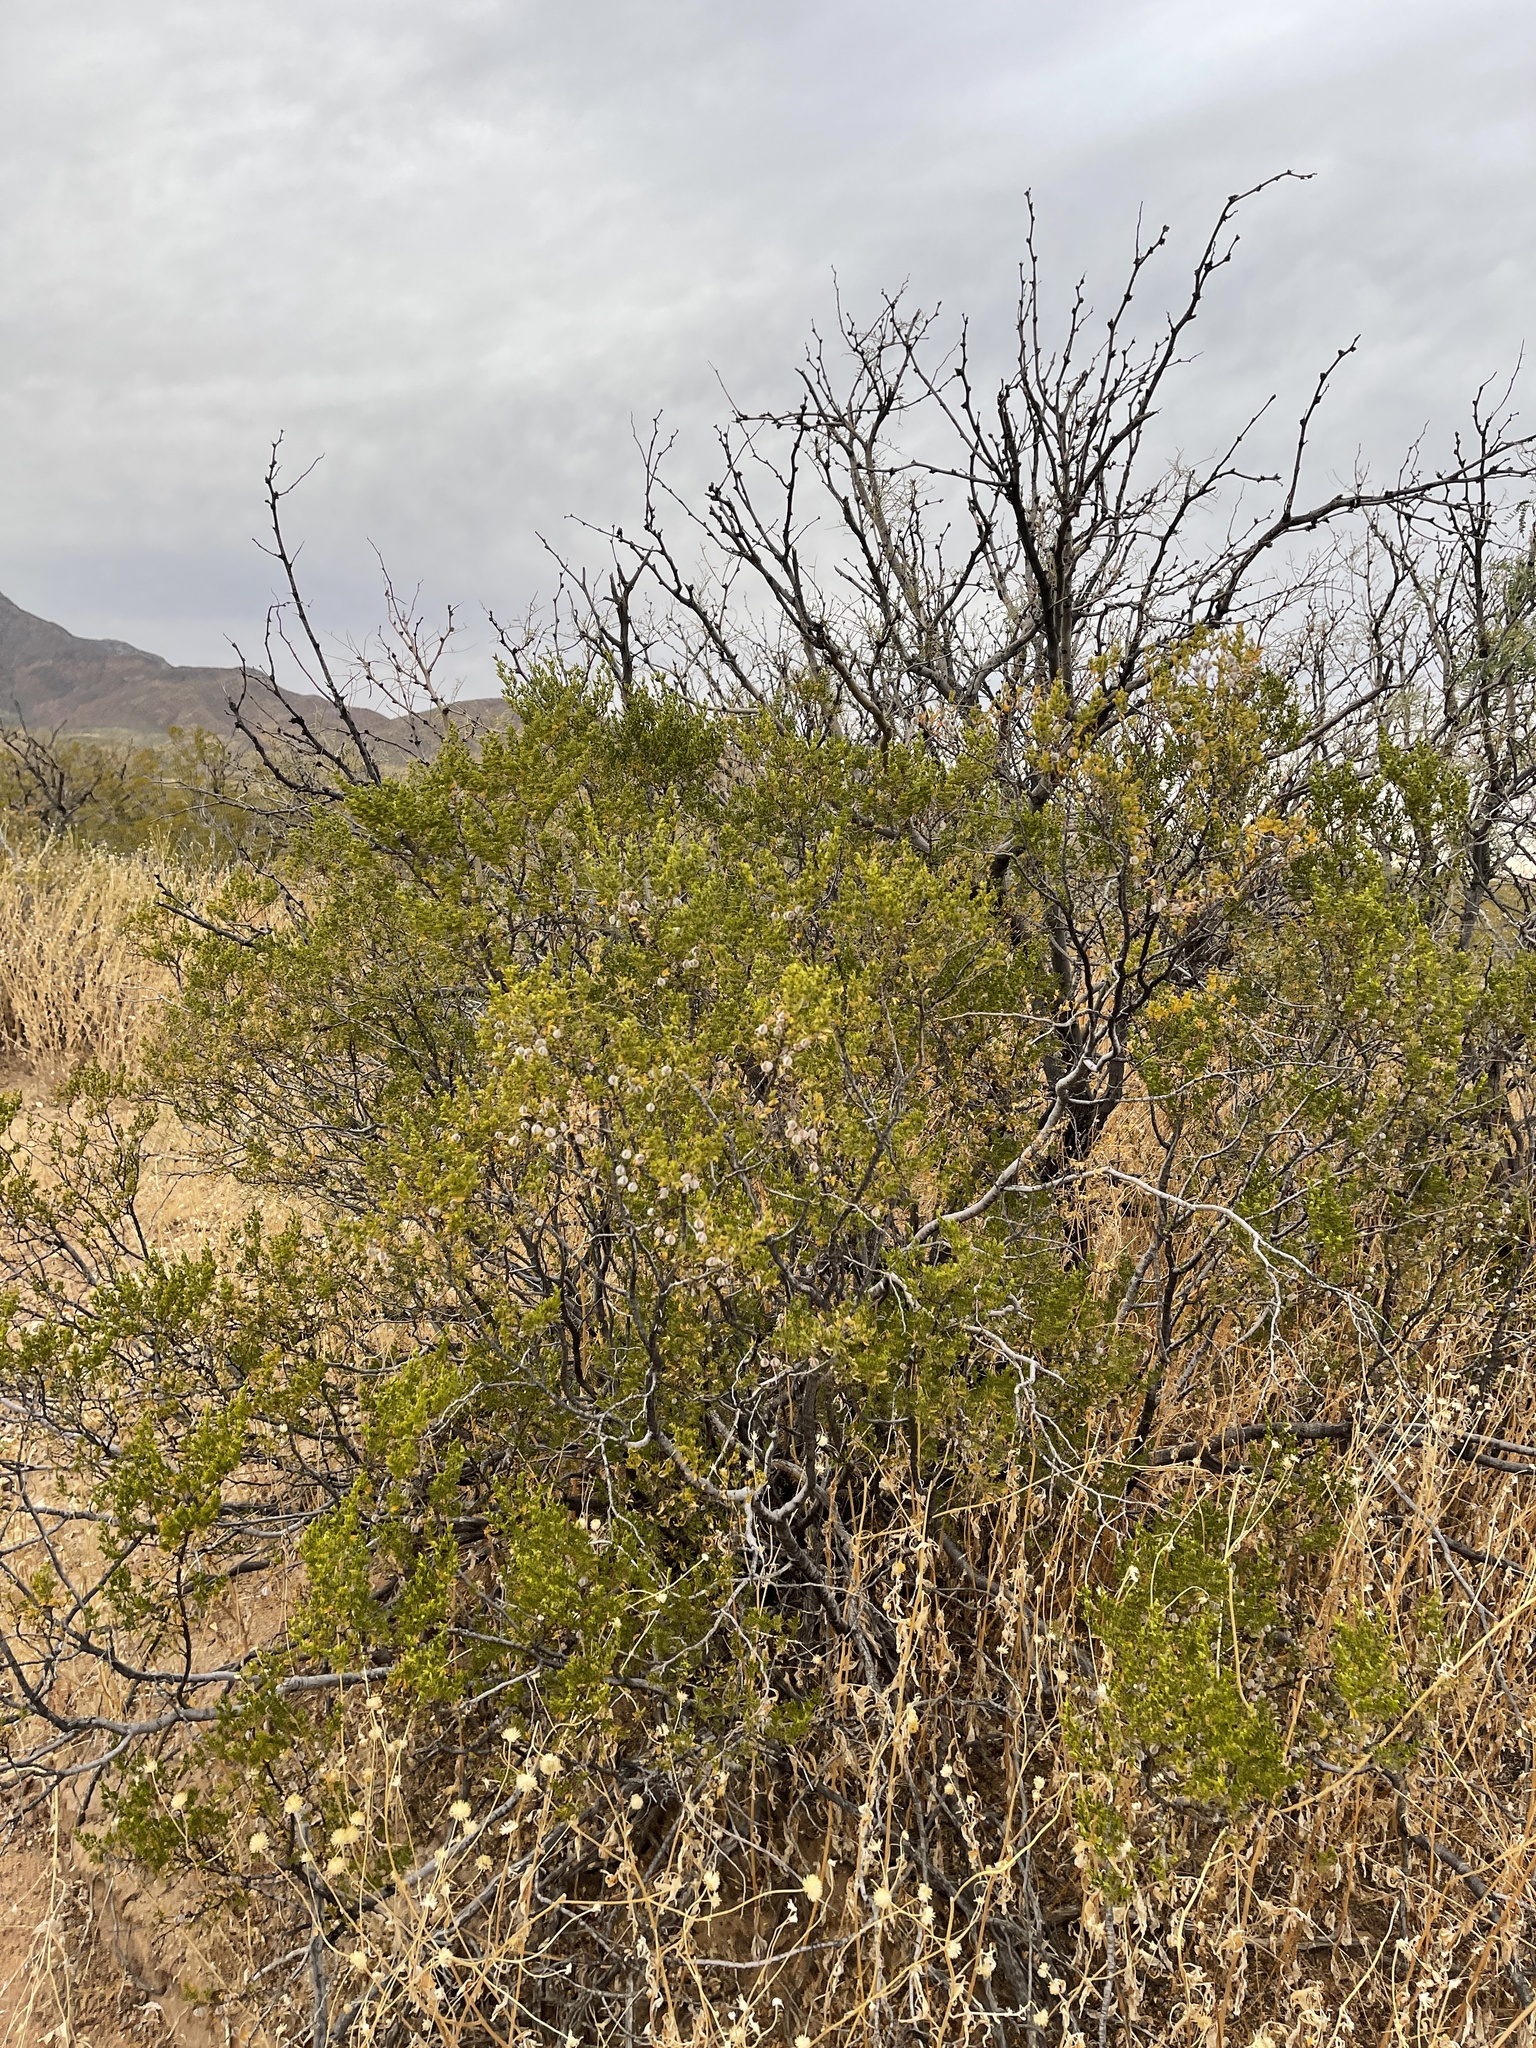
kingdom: Plantae
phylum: Tracheophyta
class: Magnoliopsida
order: Zygophyllales
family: Zygophyllaceae
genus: Larrea
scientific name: Larrea tridentata
